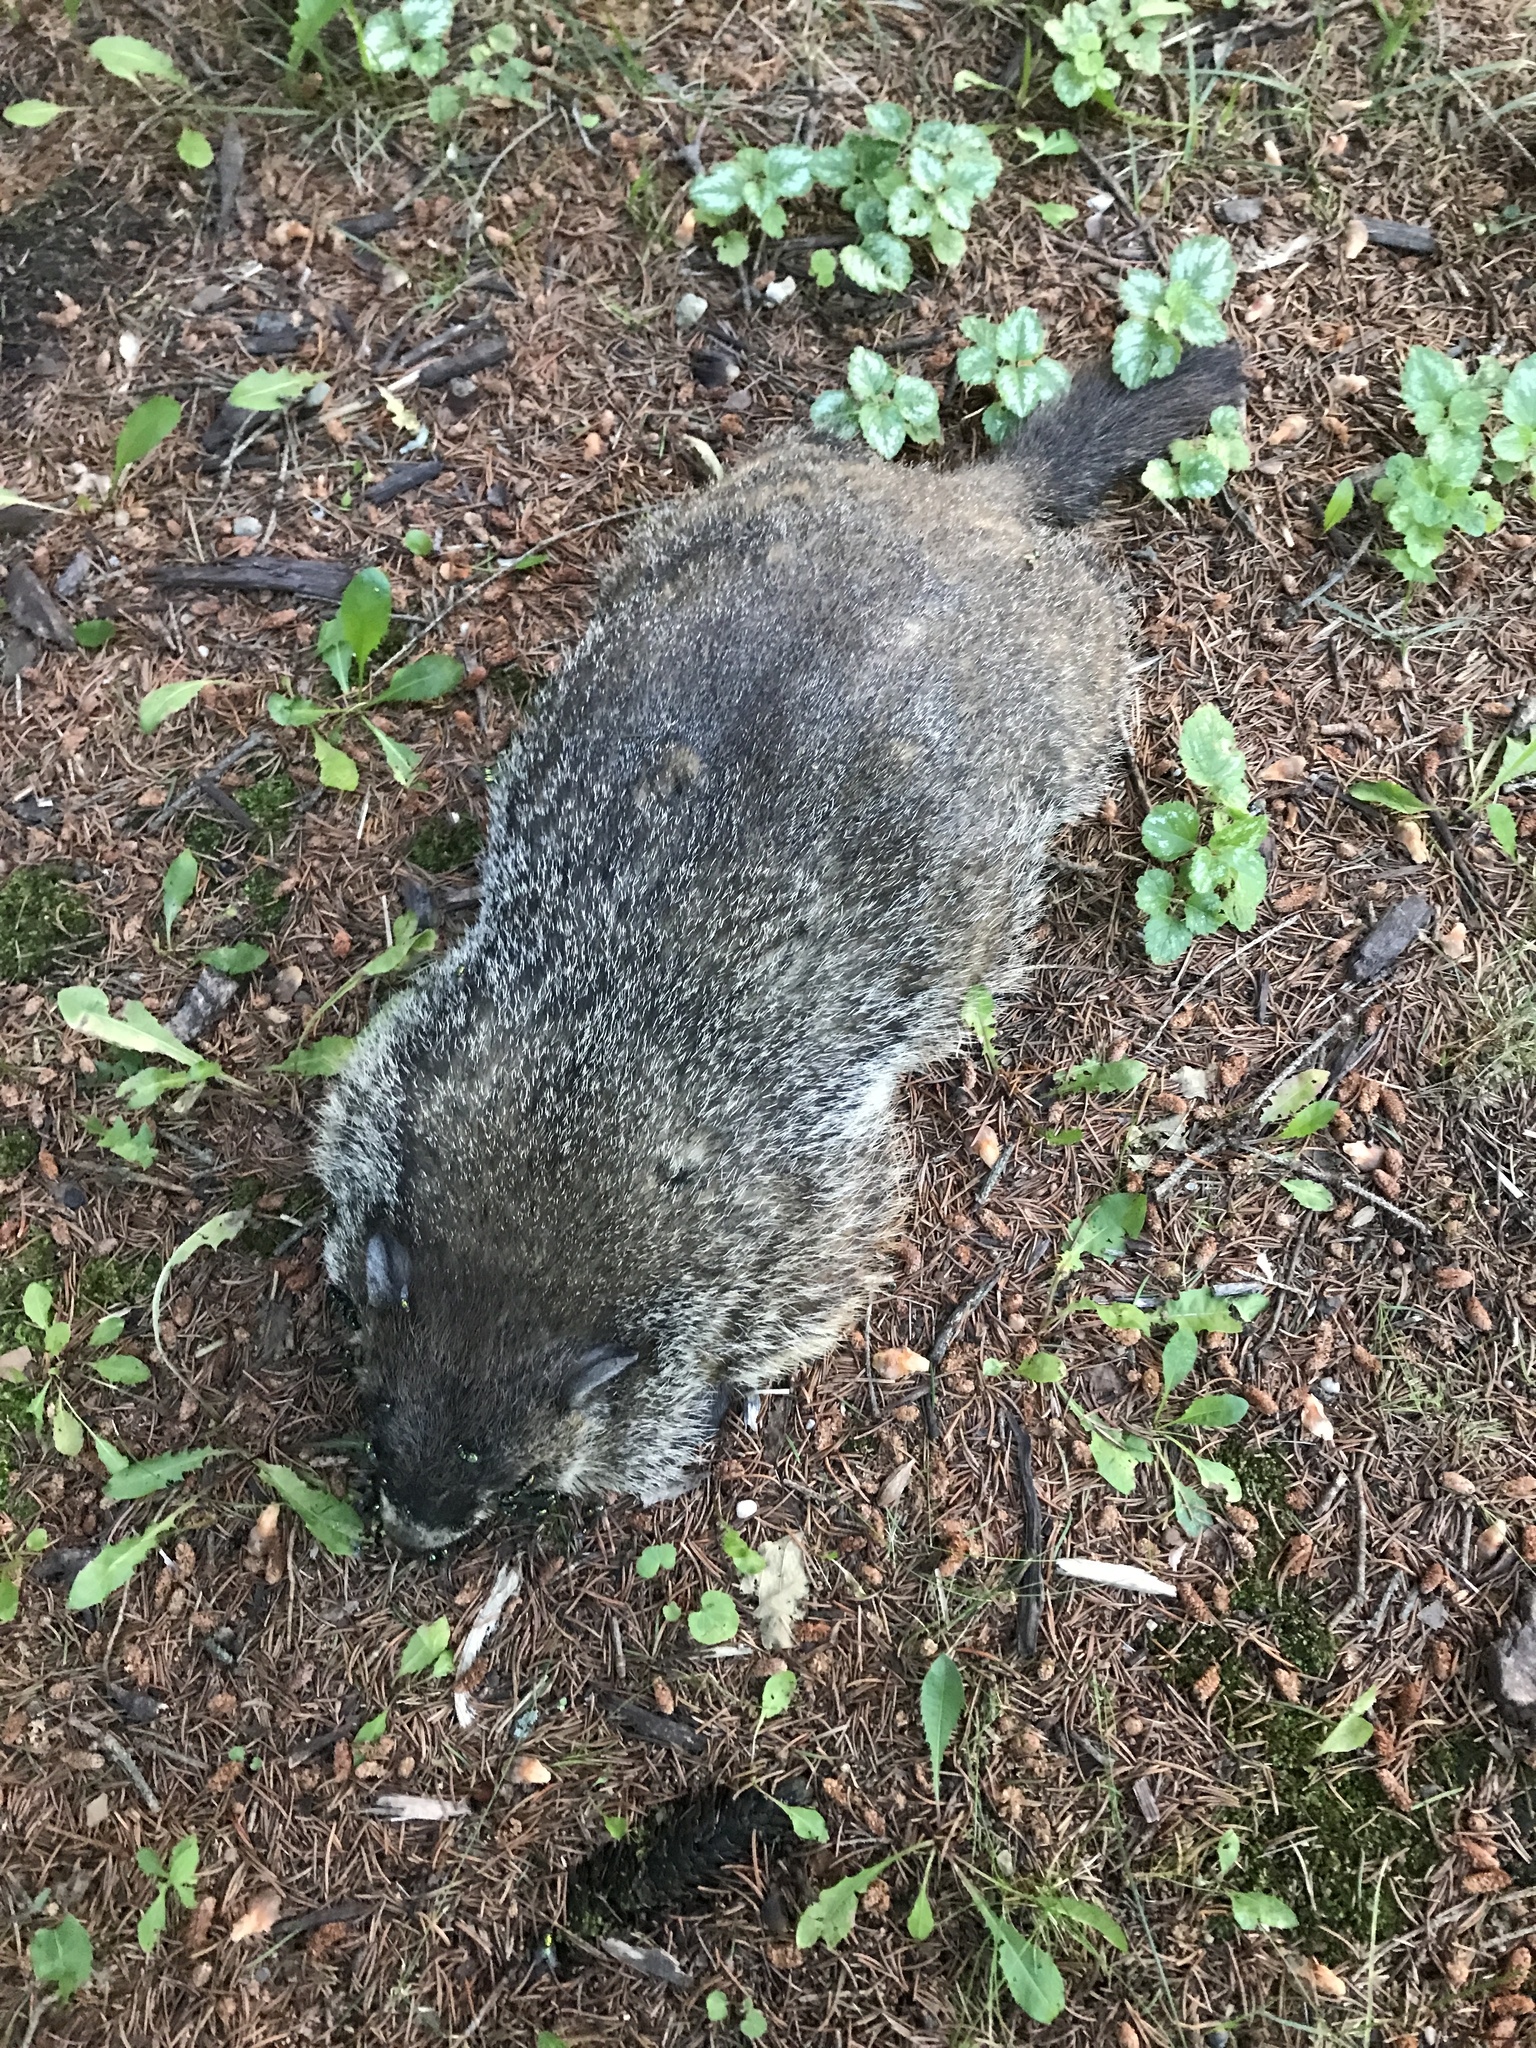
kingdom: Animalia
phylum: Chordata
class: Mammalia
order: Rodentia
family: Sciuridae
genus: Marmota
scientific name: Marmota monax
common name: Groundhog
